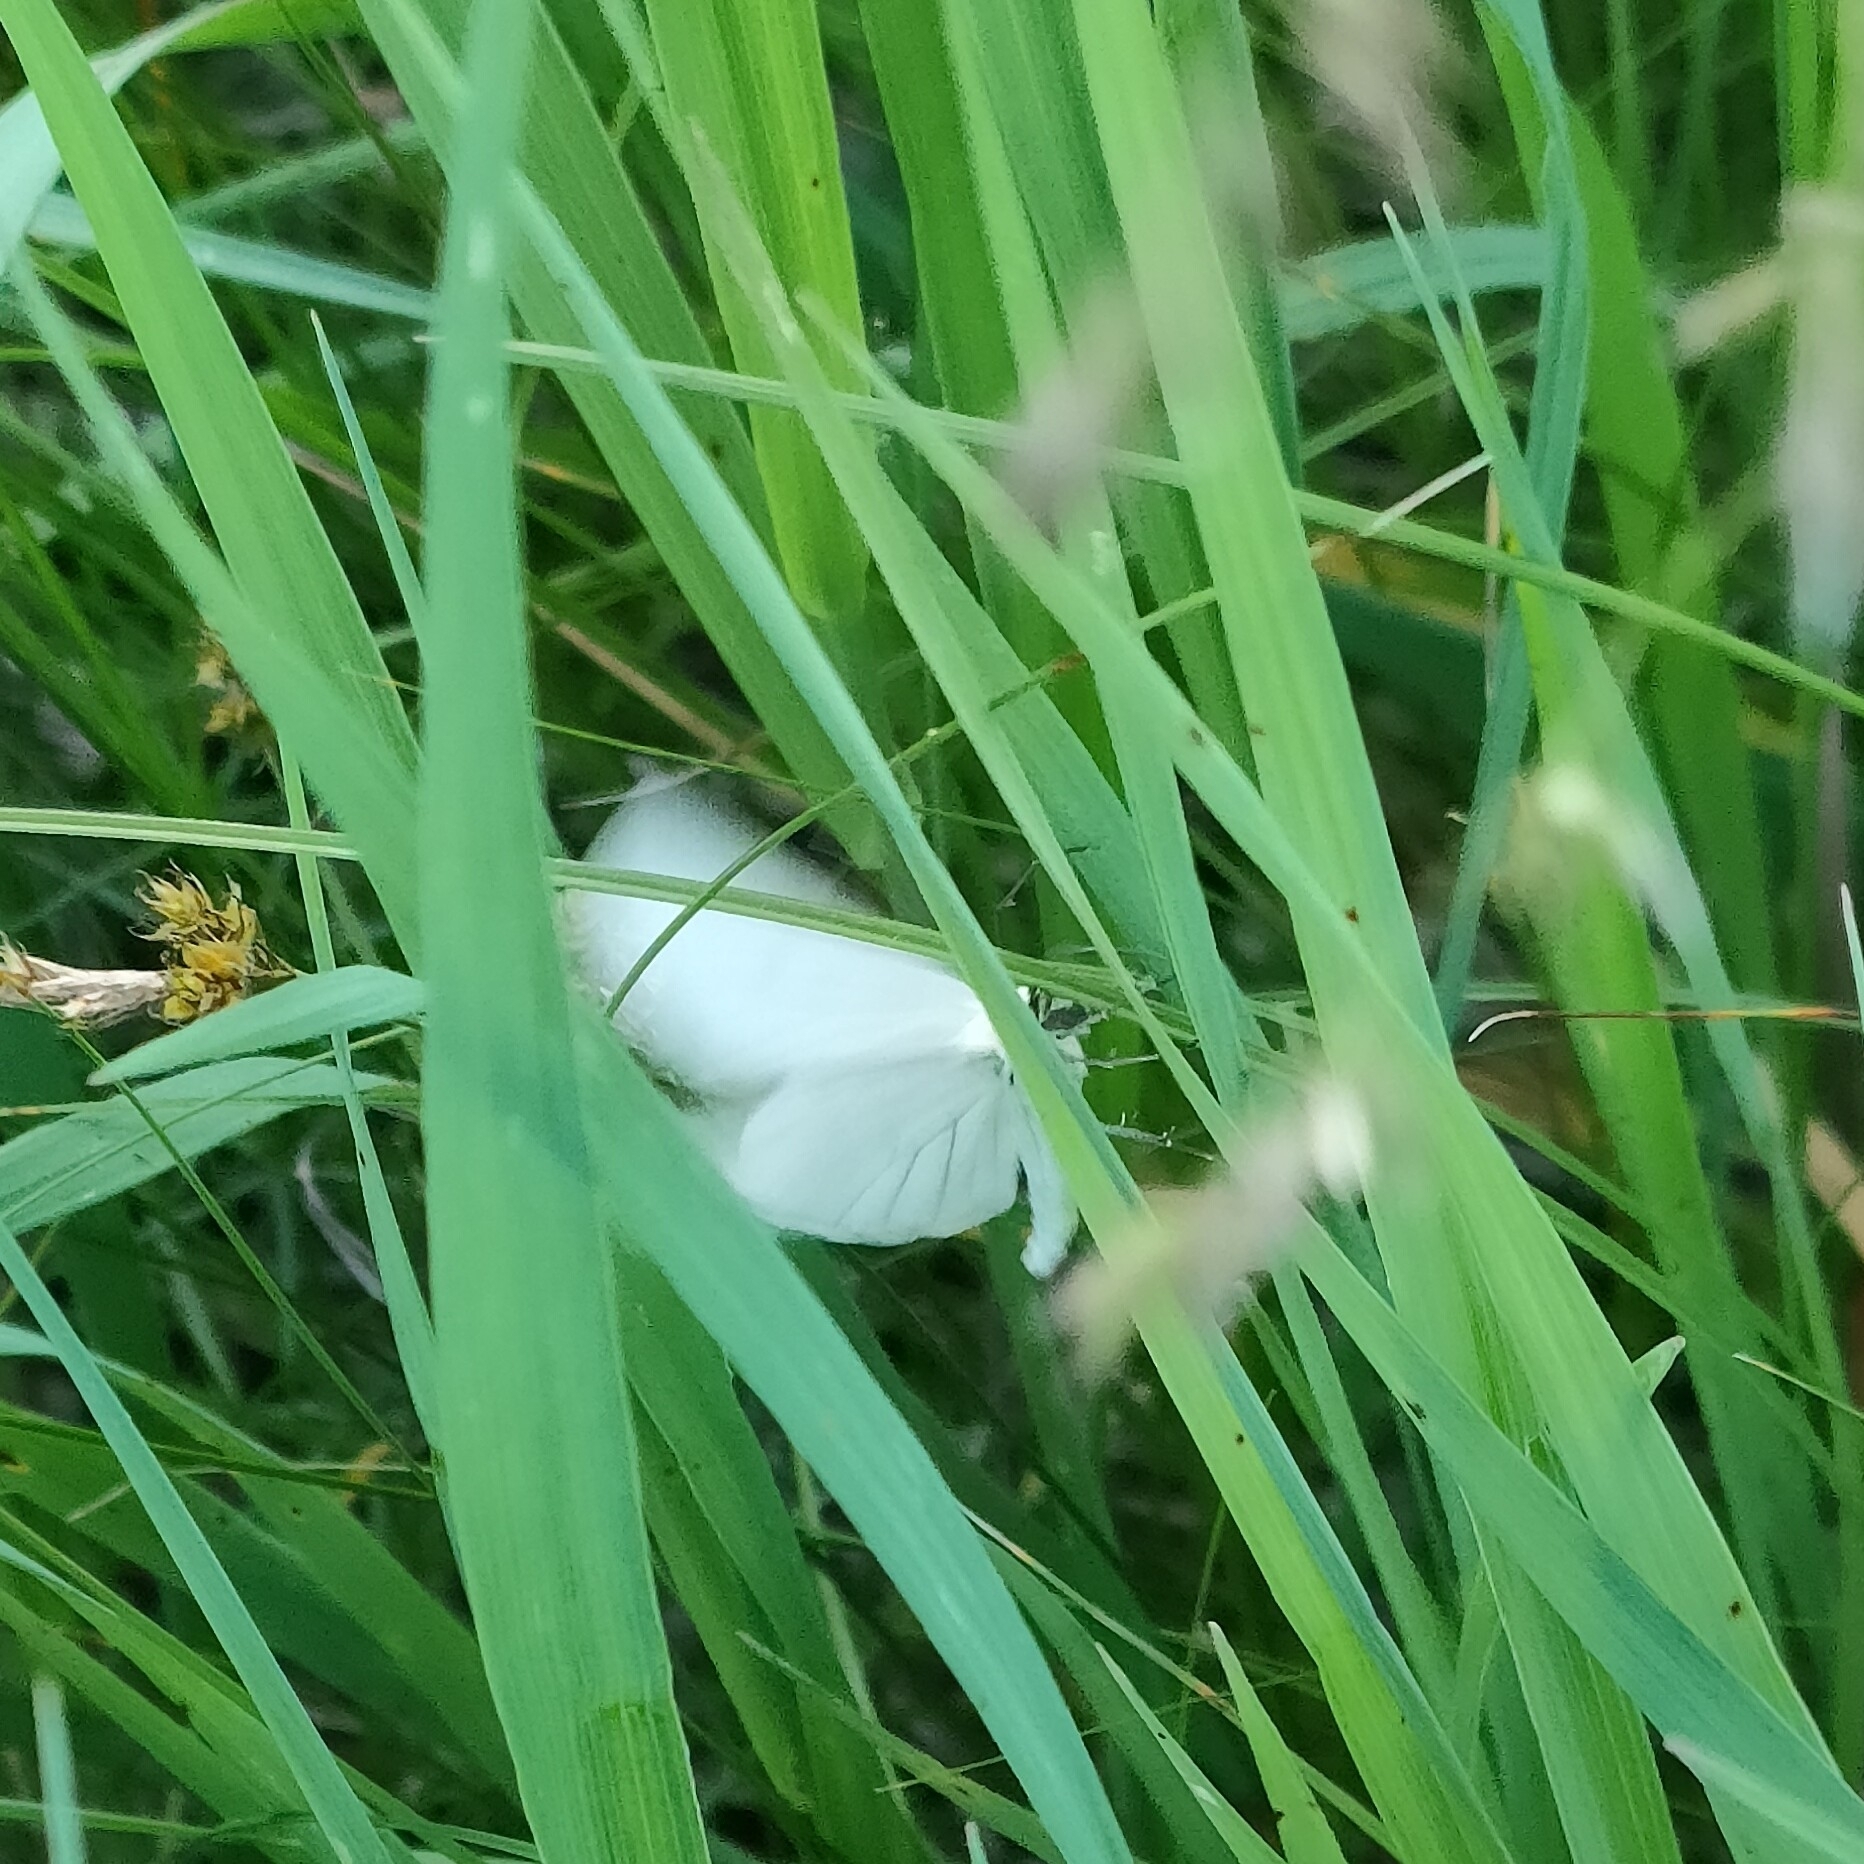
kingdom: Animalia
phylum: Arthropoda
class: Insecta
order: Lepidoptera
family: Geometridae
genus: Siona
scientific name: Siona lineata
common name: Black-veined moth
